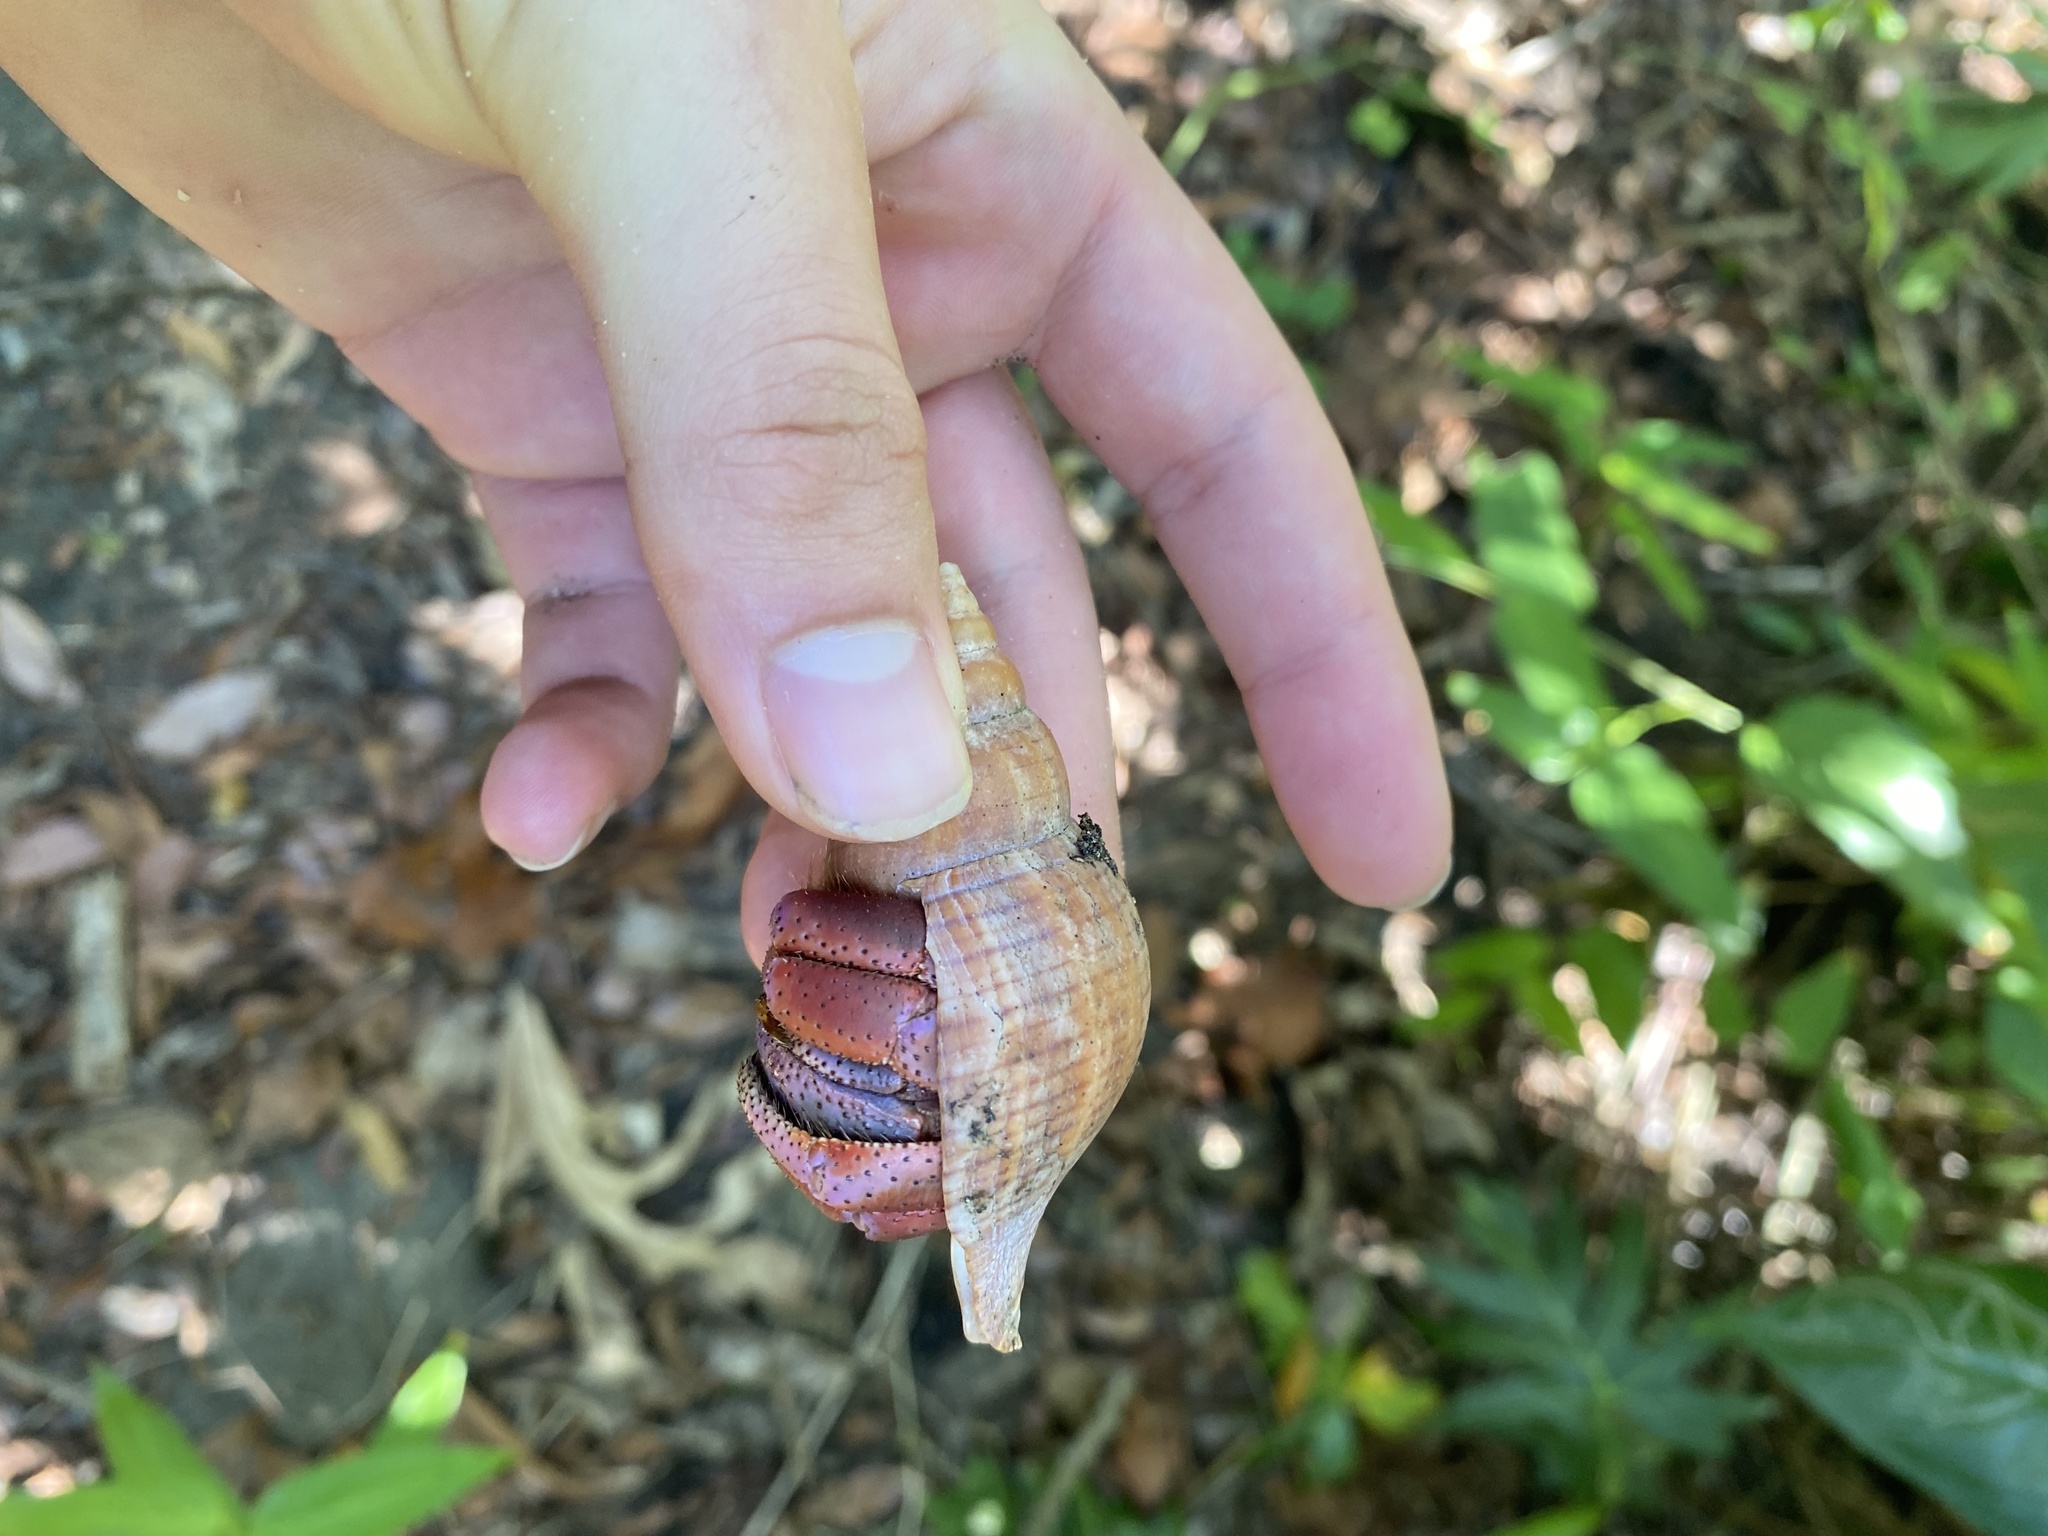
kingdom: Animalia
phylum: Arthropoda
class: Malacostraca
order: Decapoda
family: Coenobitidae
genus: Coenobita
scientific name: Coenobita clypeatus
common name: Caribbean hermit crab
